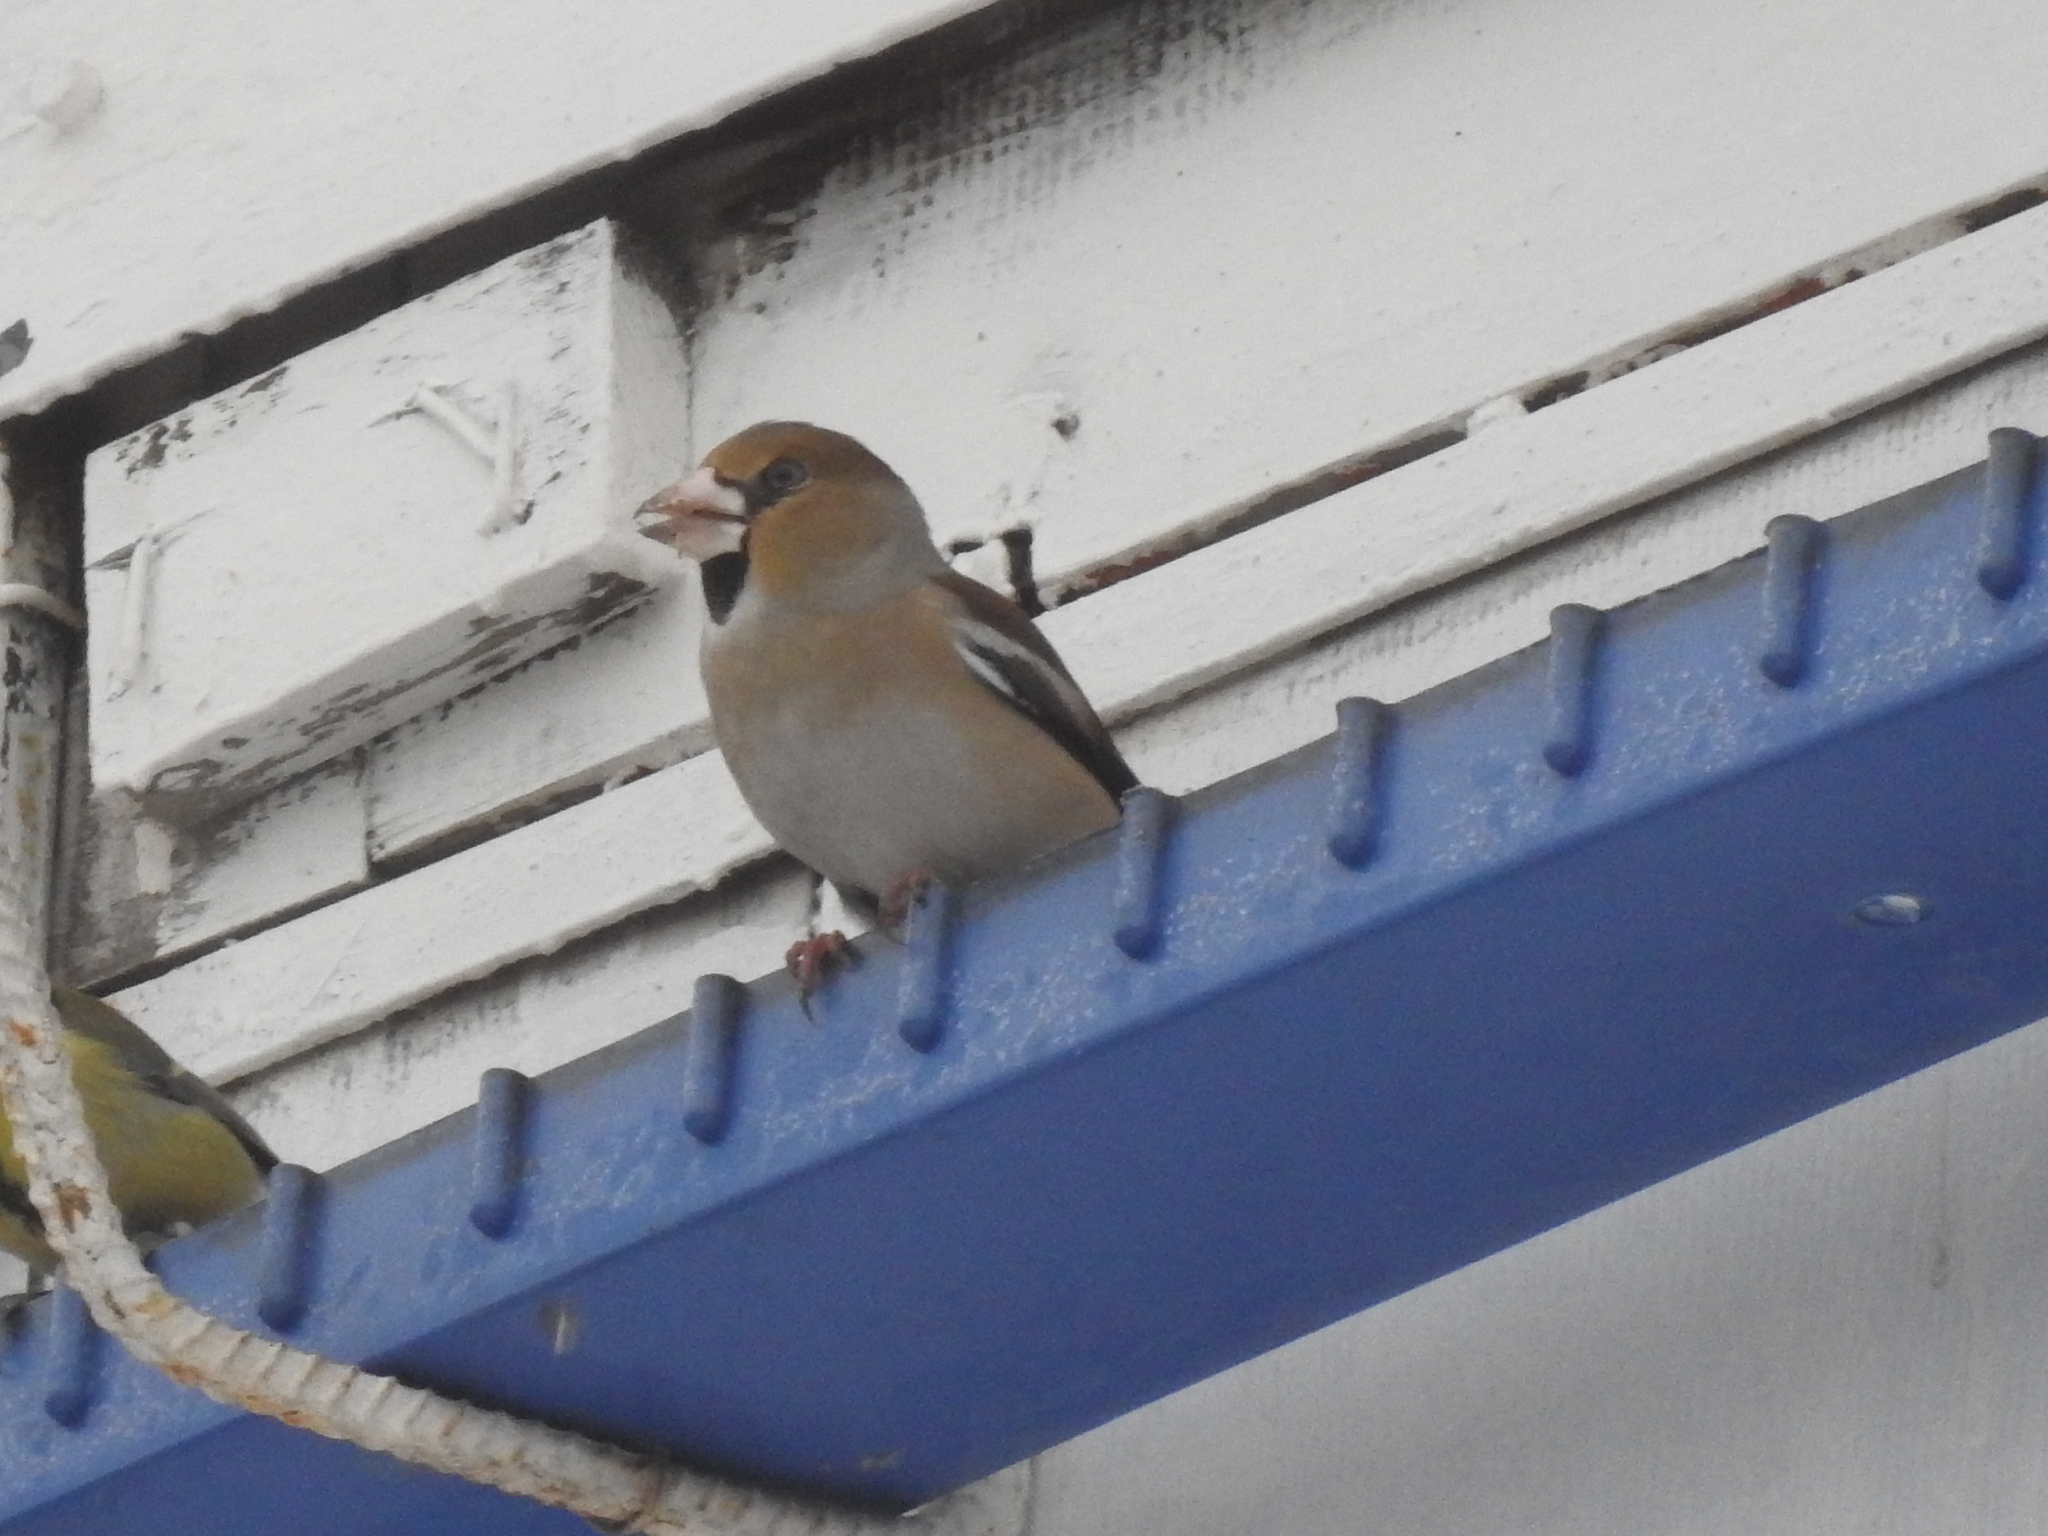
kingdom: Animalia
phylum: Chordata
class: Aves
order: Passeriformes
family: Fringillidae
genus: Coccothraustes
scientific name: Coccothraustes coccothraustes
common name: Hawfinch
